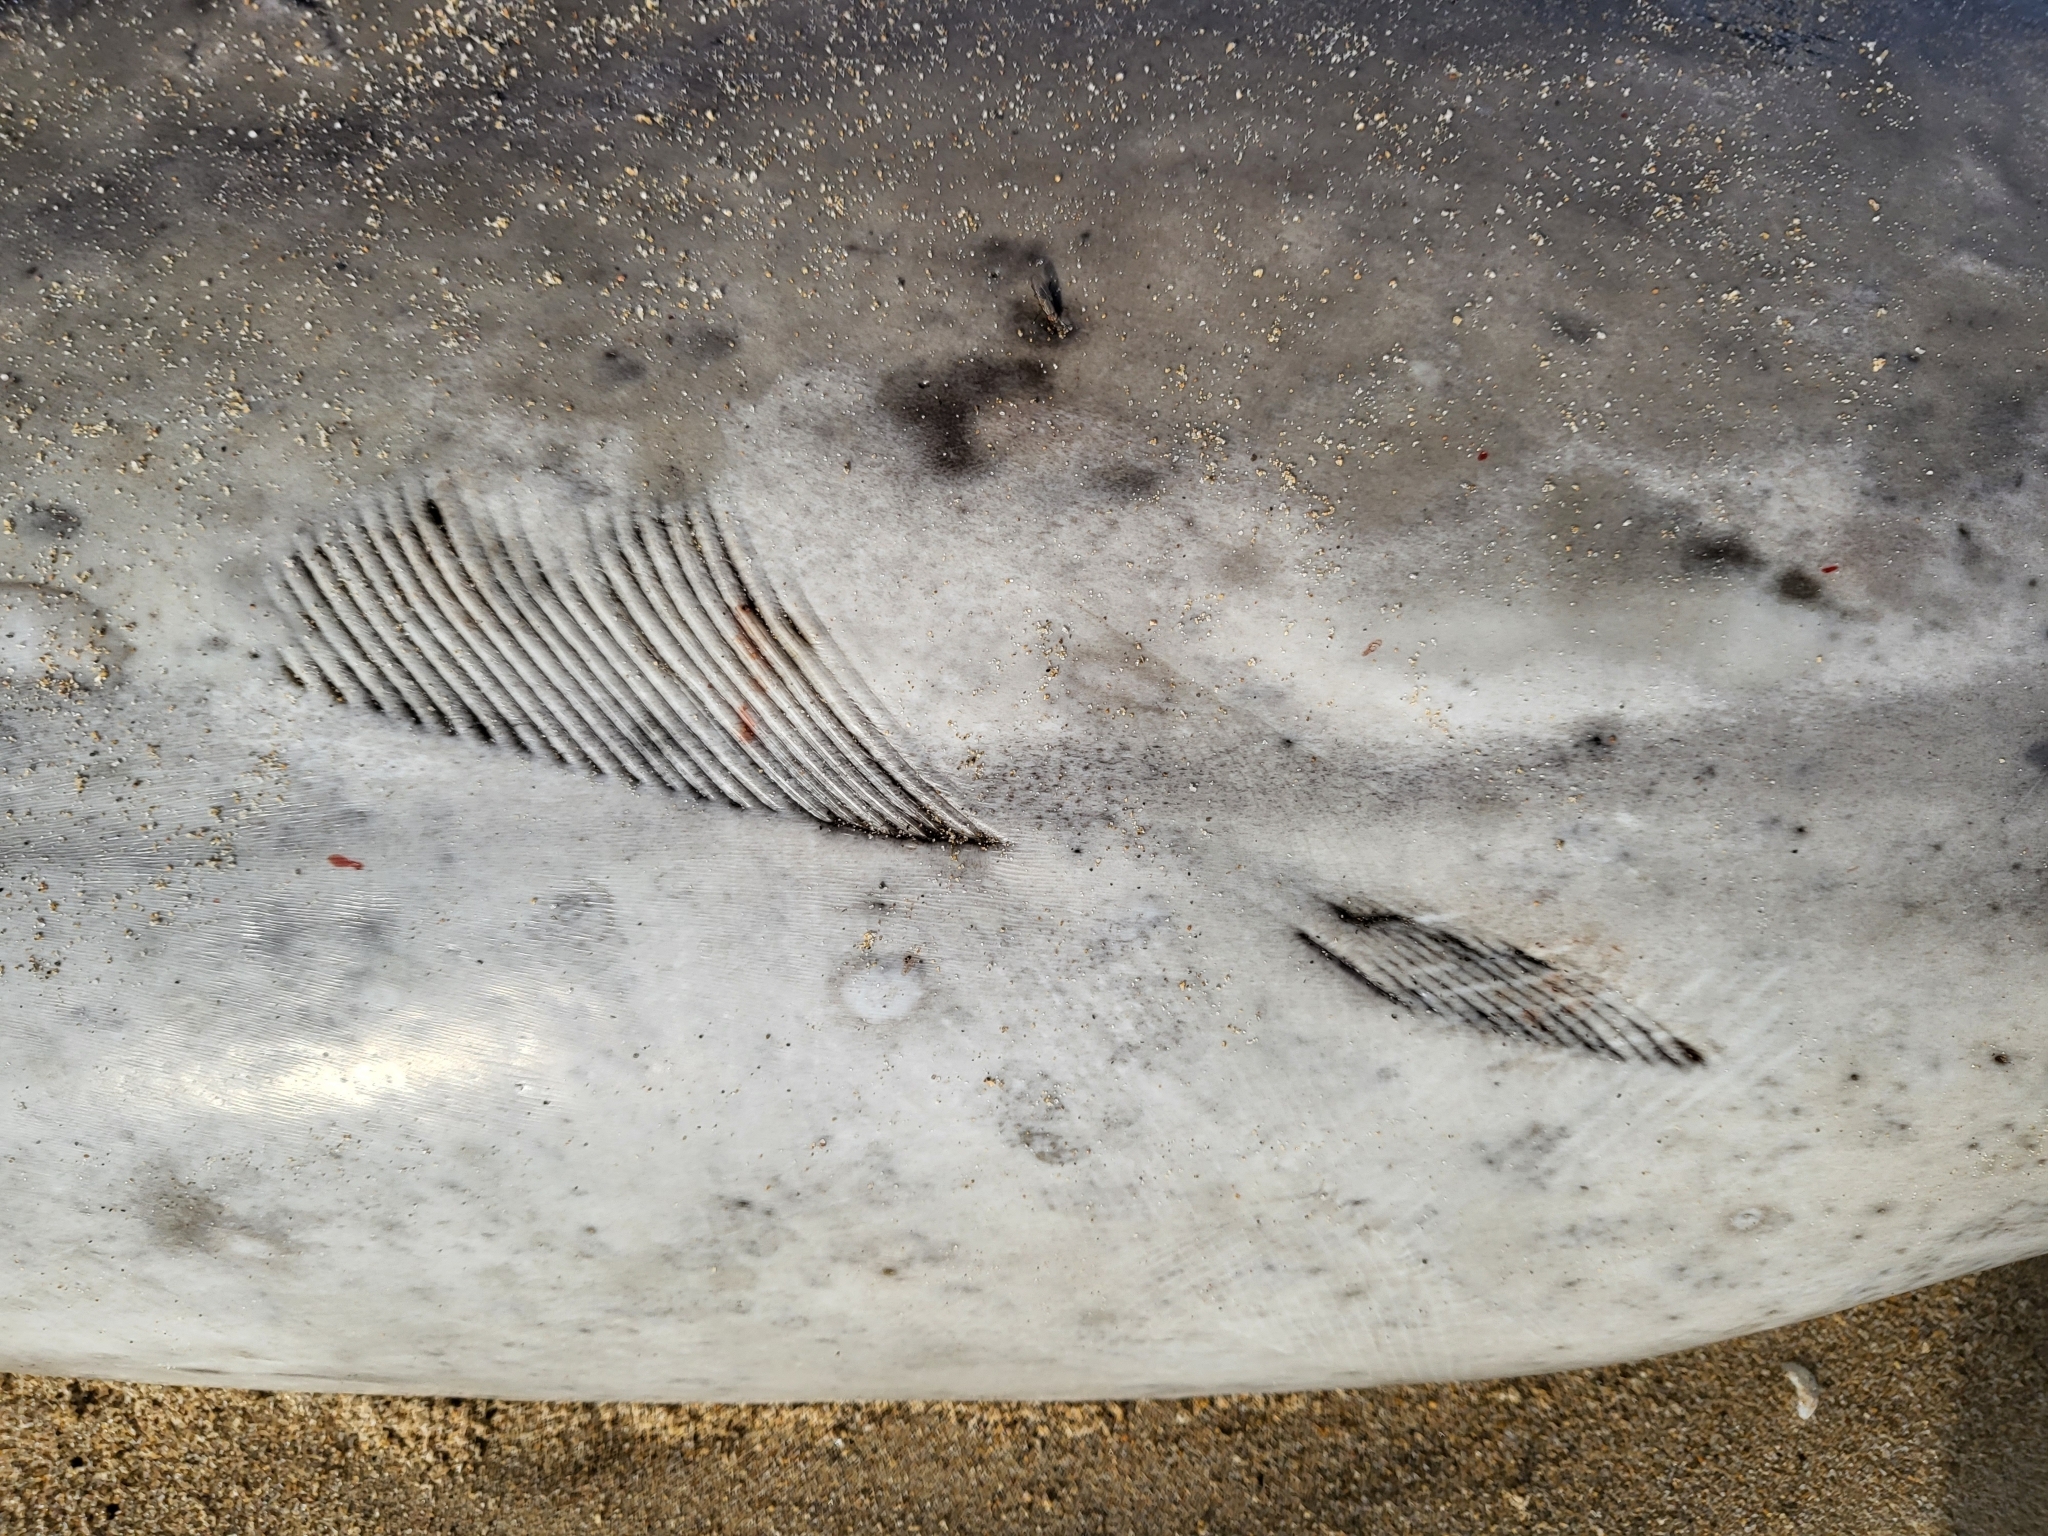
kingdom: Animalia
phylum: Chordata
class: Mammalia
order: Cetacea
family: Delphinidae
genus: Delphinus
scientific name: Delphinus delphis
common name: Common dolphin
